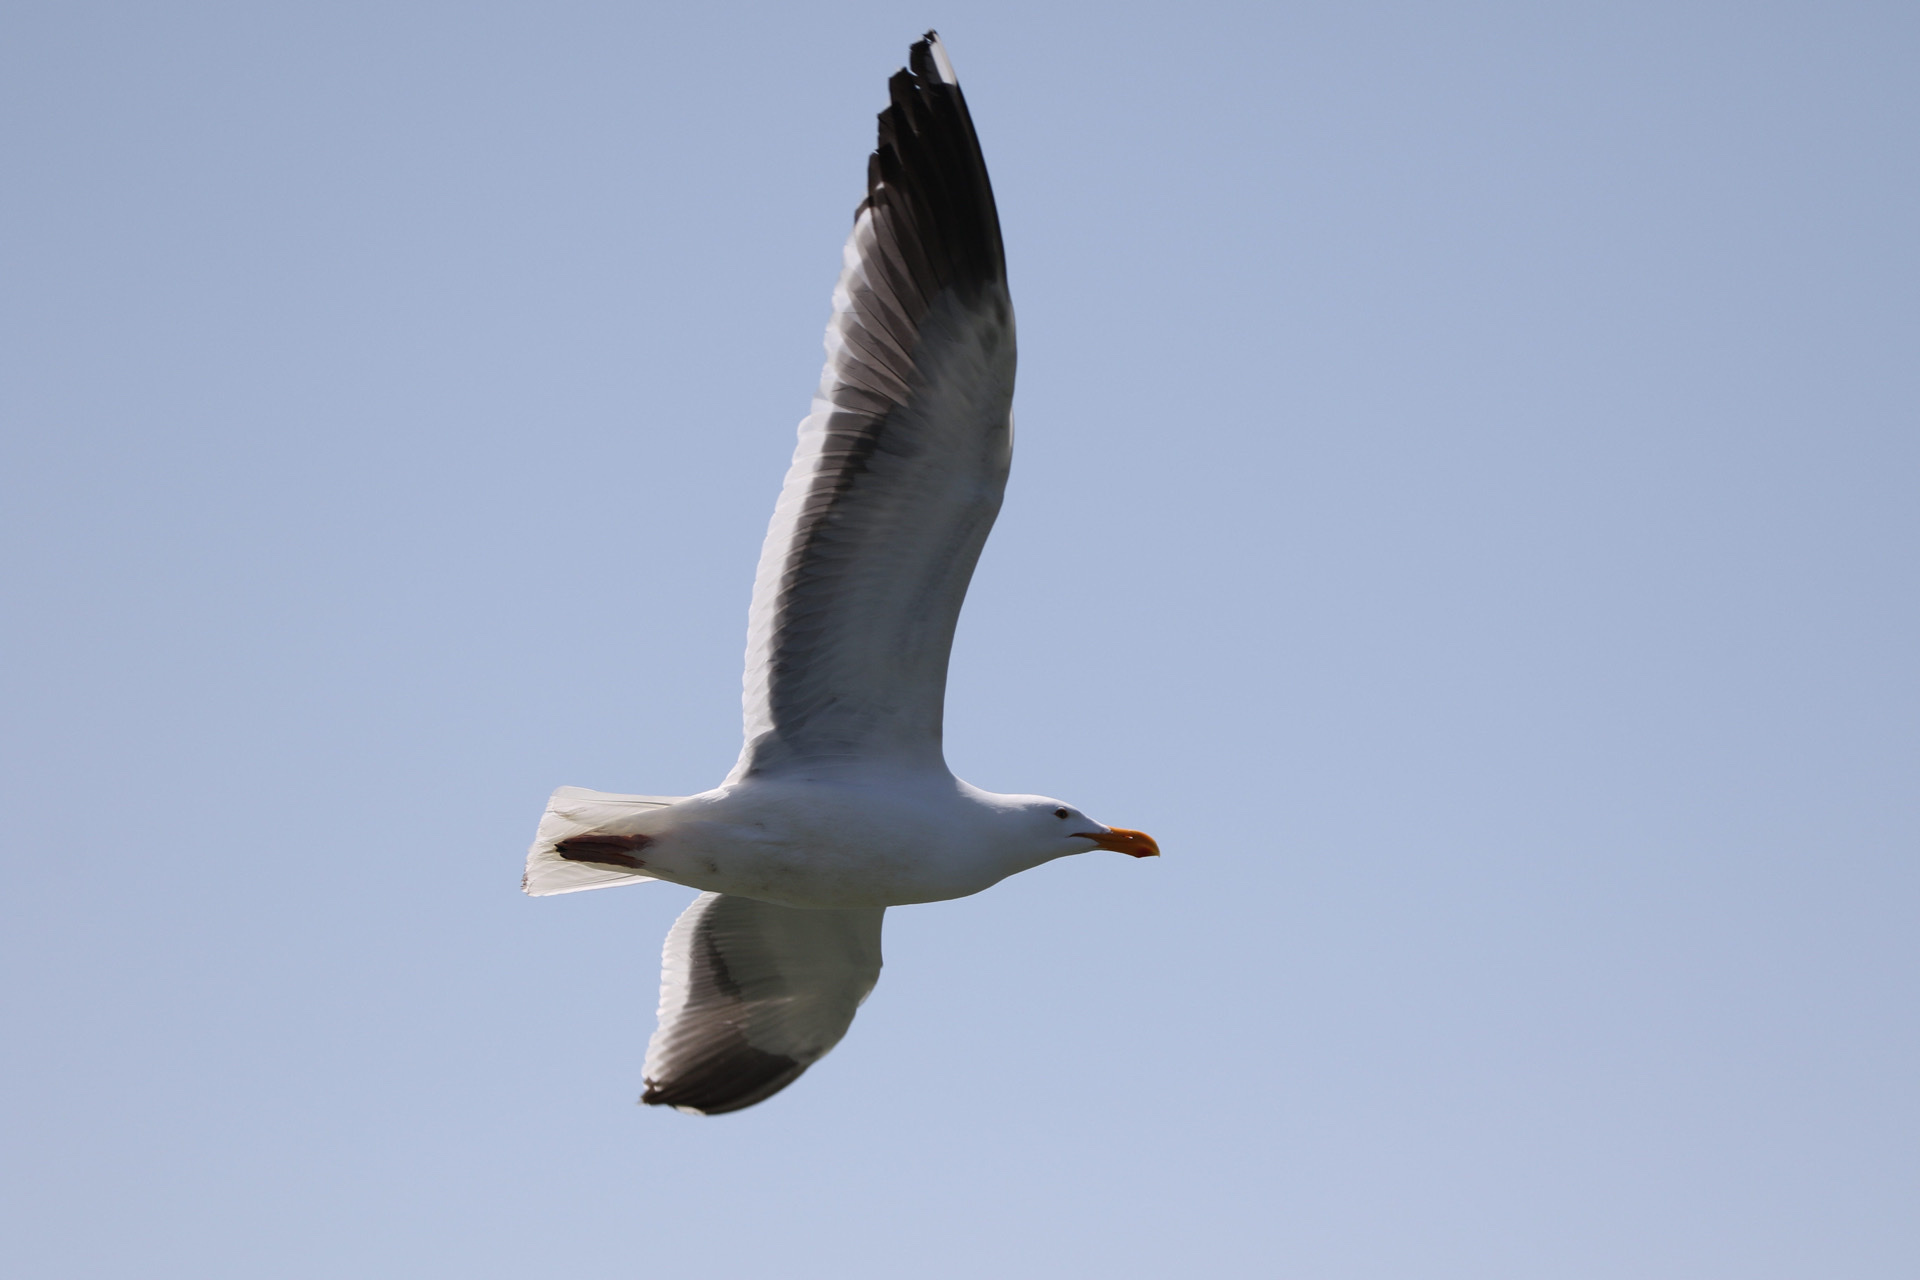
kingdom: Animalia
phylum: Chordata
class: Aves
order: Charadriiformes
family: Laridae
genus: Larus
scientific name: Larus occidentalis
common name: Western gull
